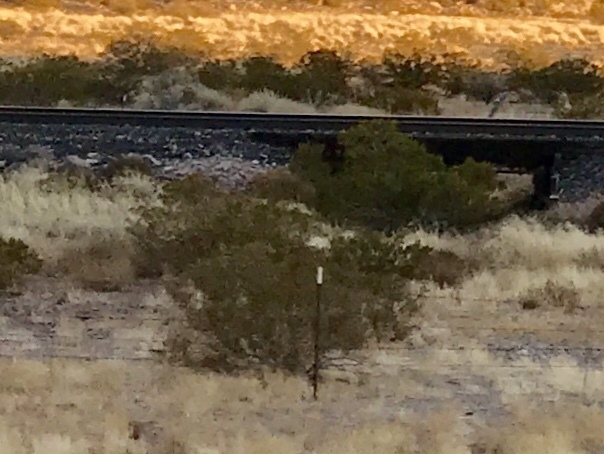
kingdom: Plantae
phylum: Tracheophyta
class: Magnoliopsida
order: Zygophyllales
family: Zygophyllaceae
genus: Larrea
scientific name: Larrea tridentata
